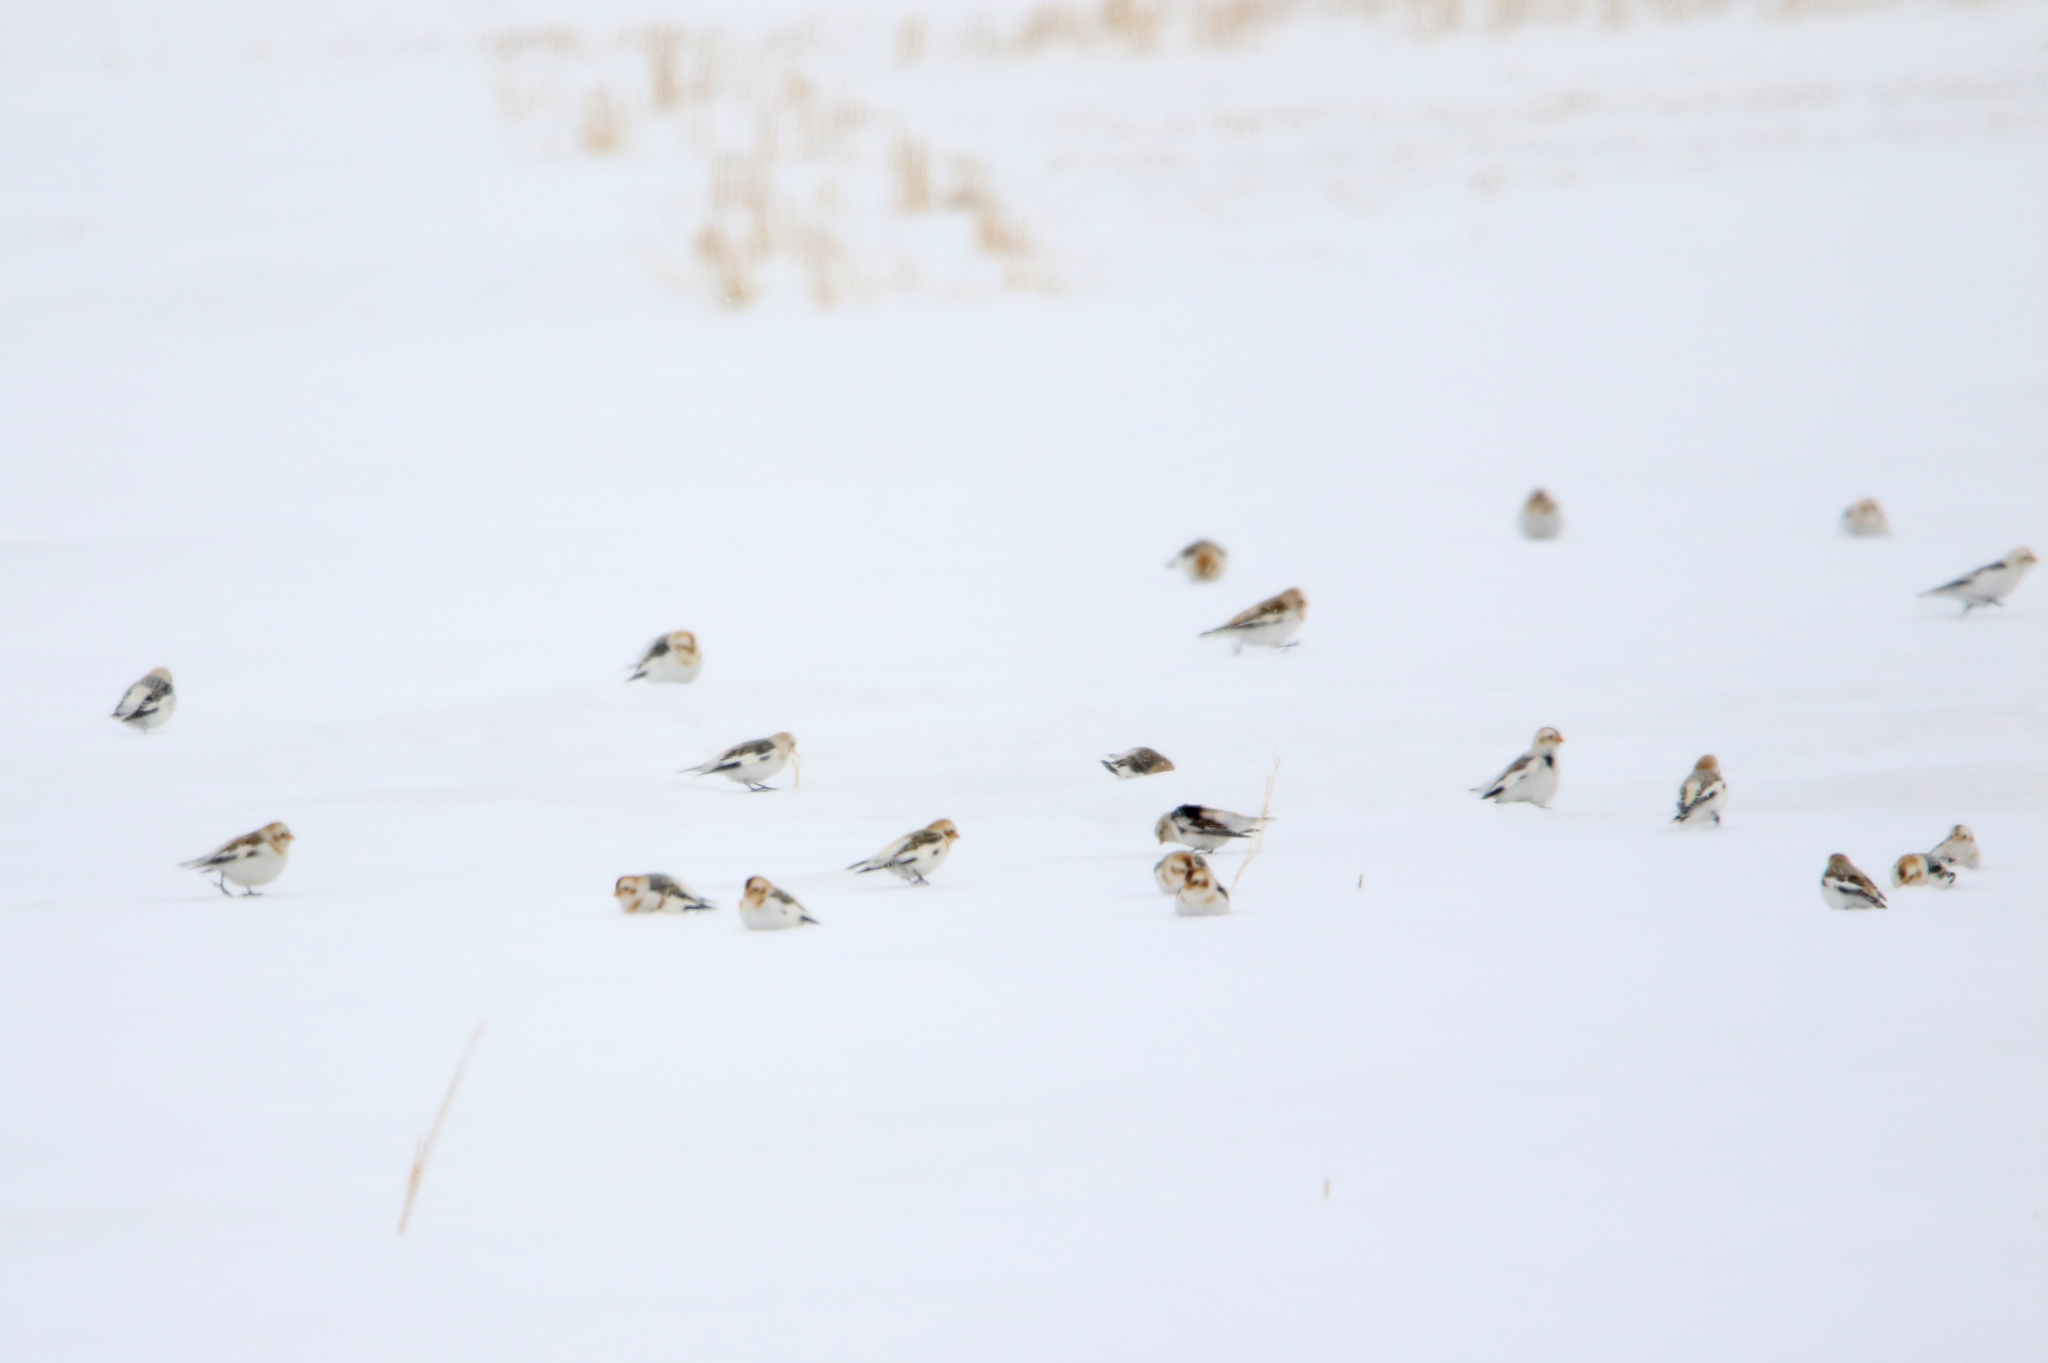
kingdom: Animalia
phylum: Chordata
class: Aves
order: Passeriformes
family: Calcariidae
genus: Plectrophenax
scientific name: Plectrophenax nivalis
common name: Snow bunting
